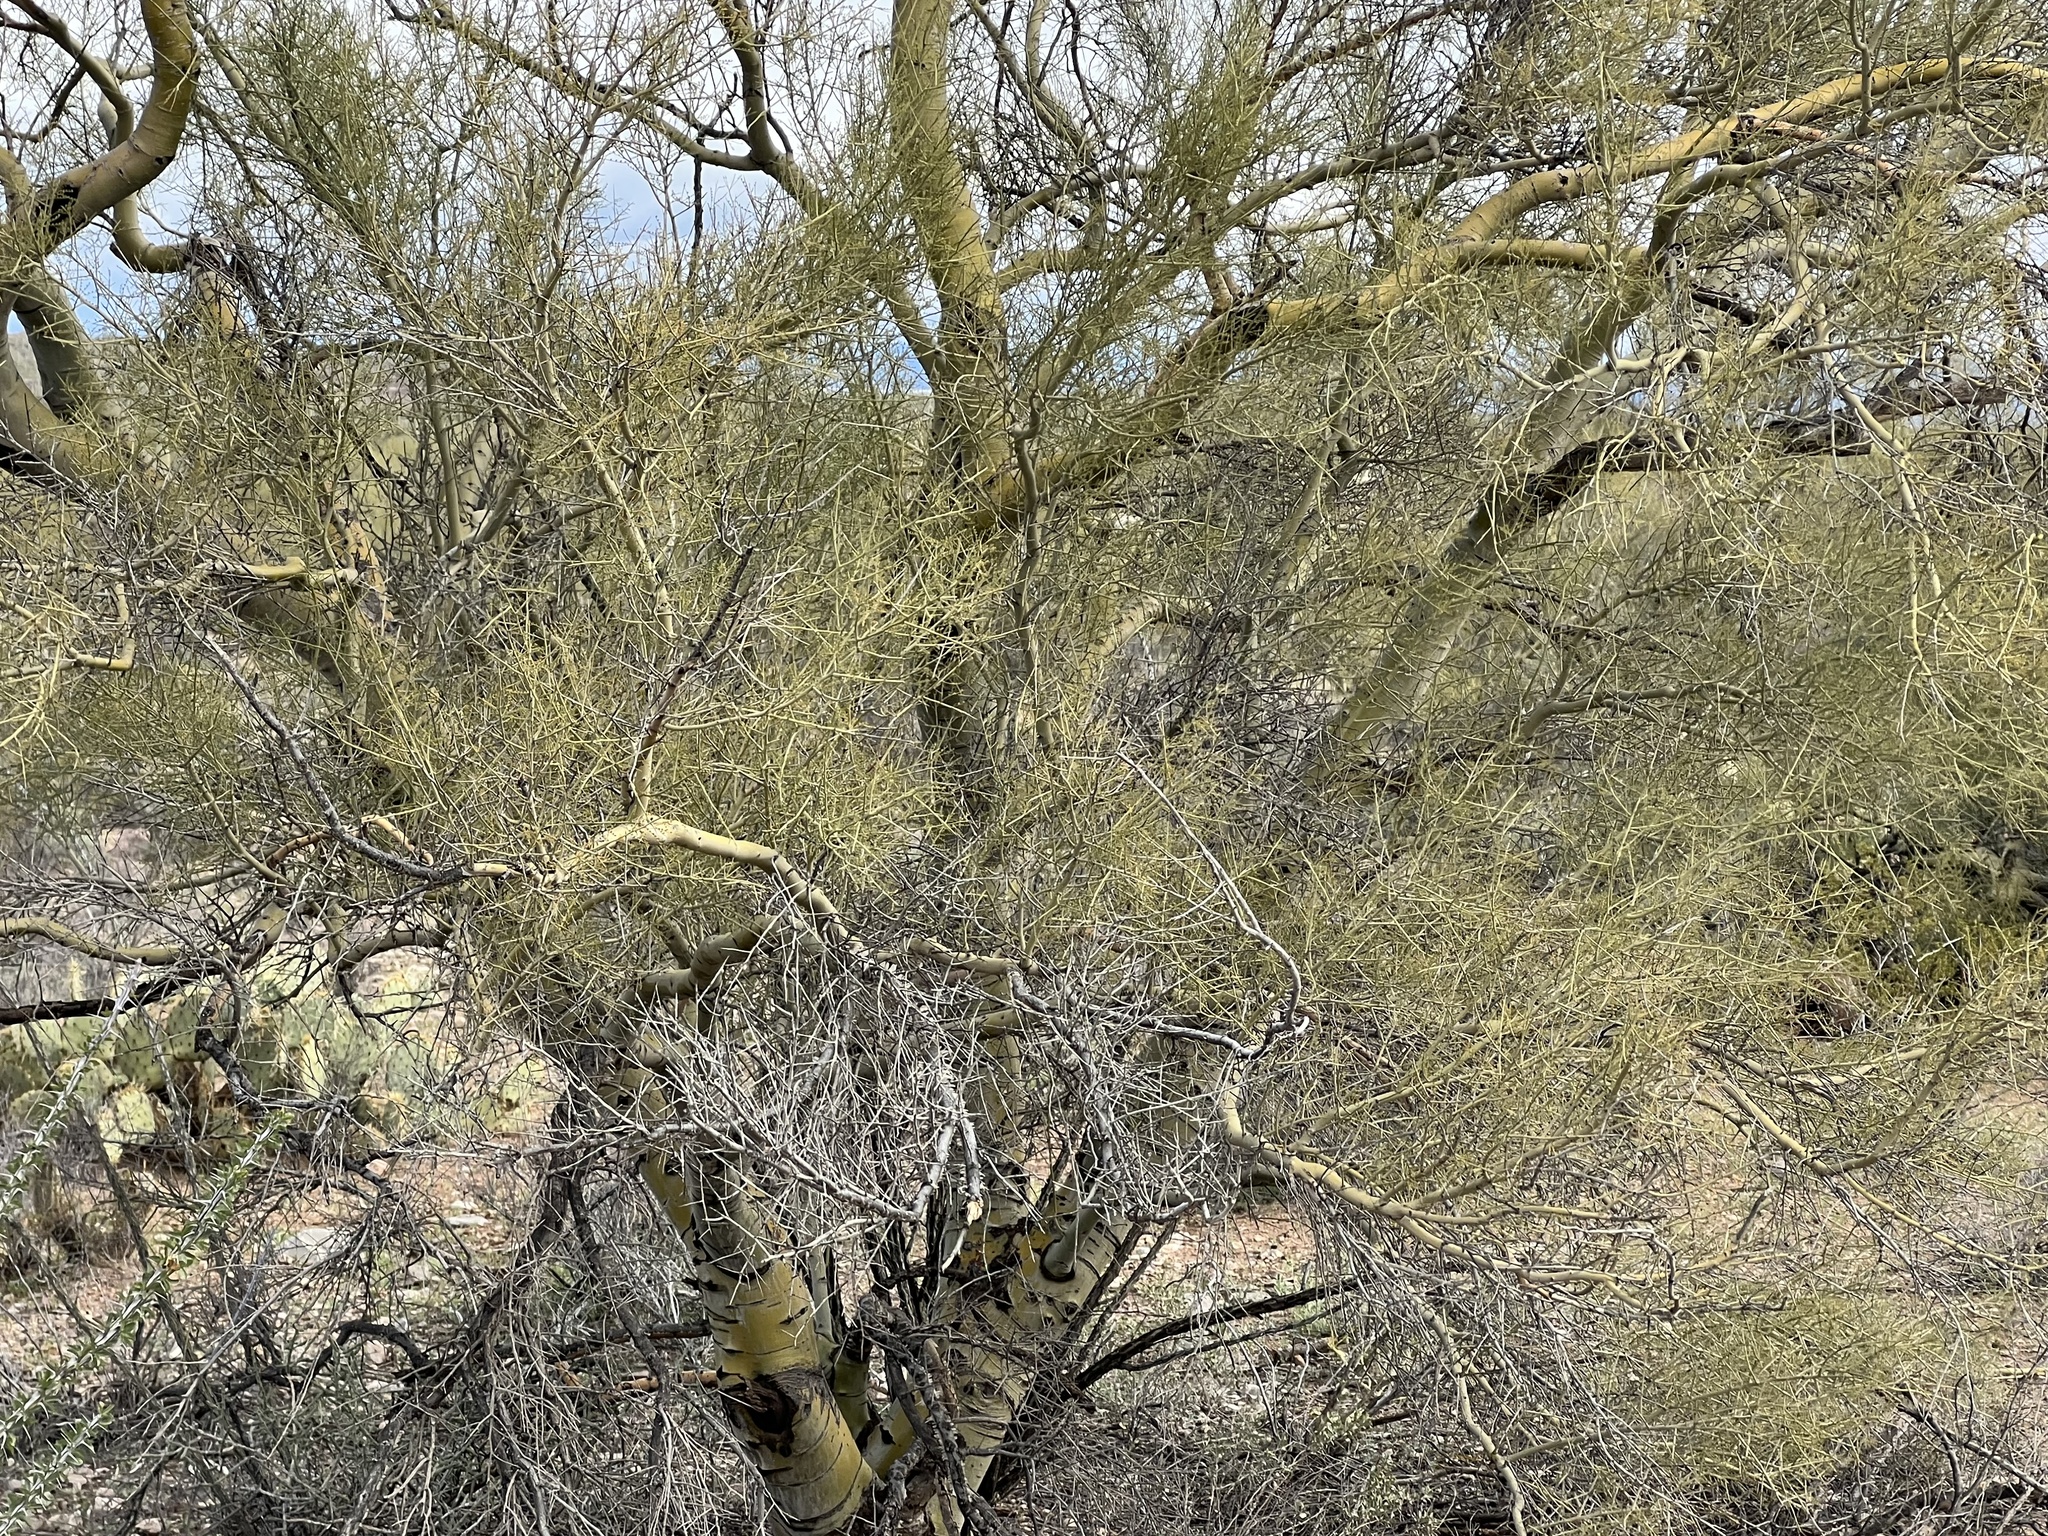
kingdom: Plantae
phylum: Tracheophyta
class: Magnoliopsida
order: Fabales
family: Fabaceae
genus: Parkinsonia
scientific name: Parkinsonia microphylla
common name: Yellow paloverde
